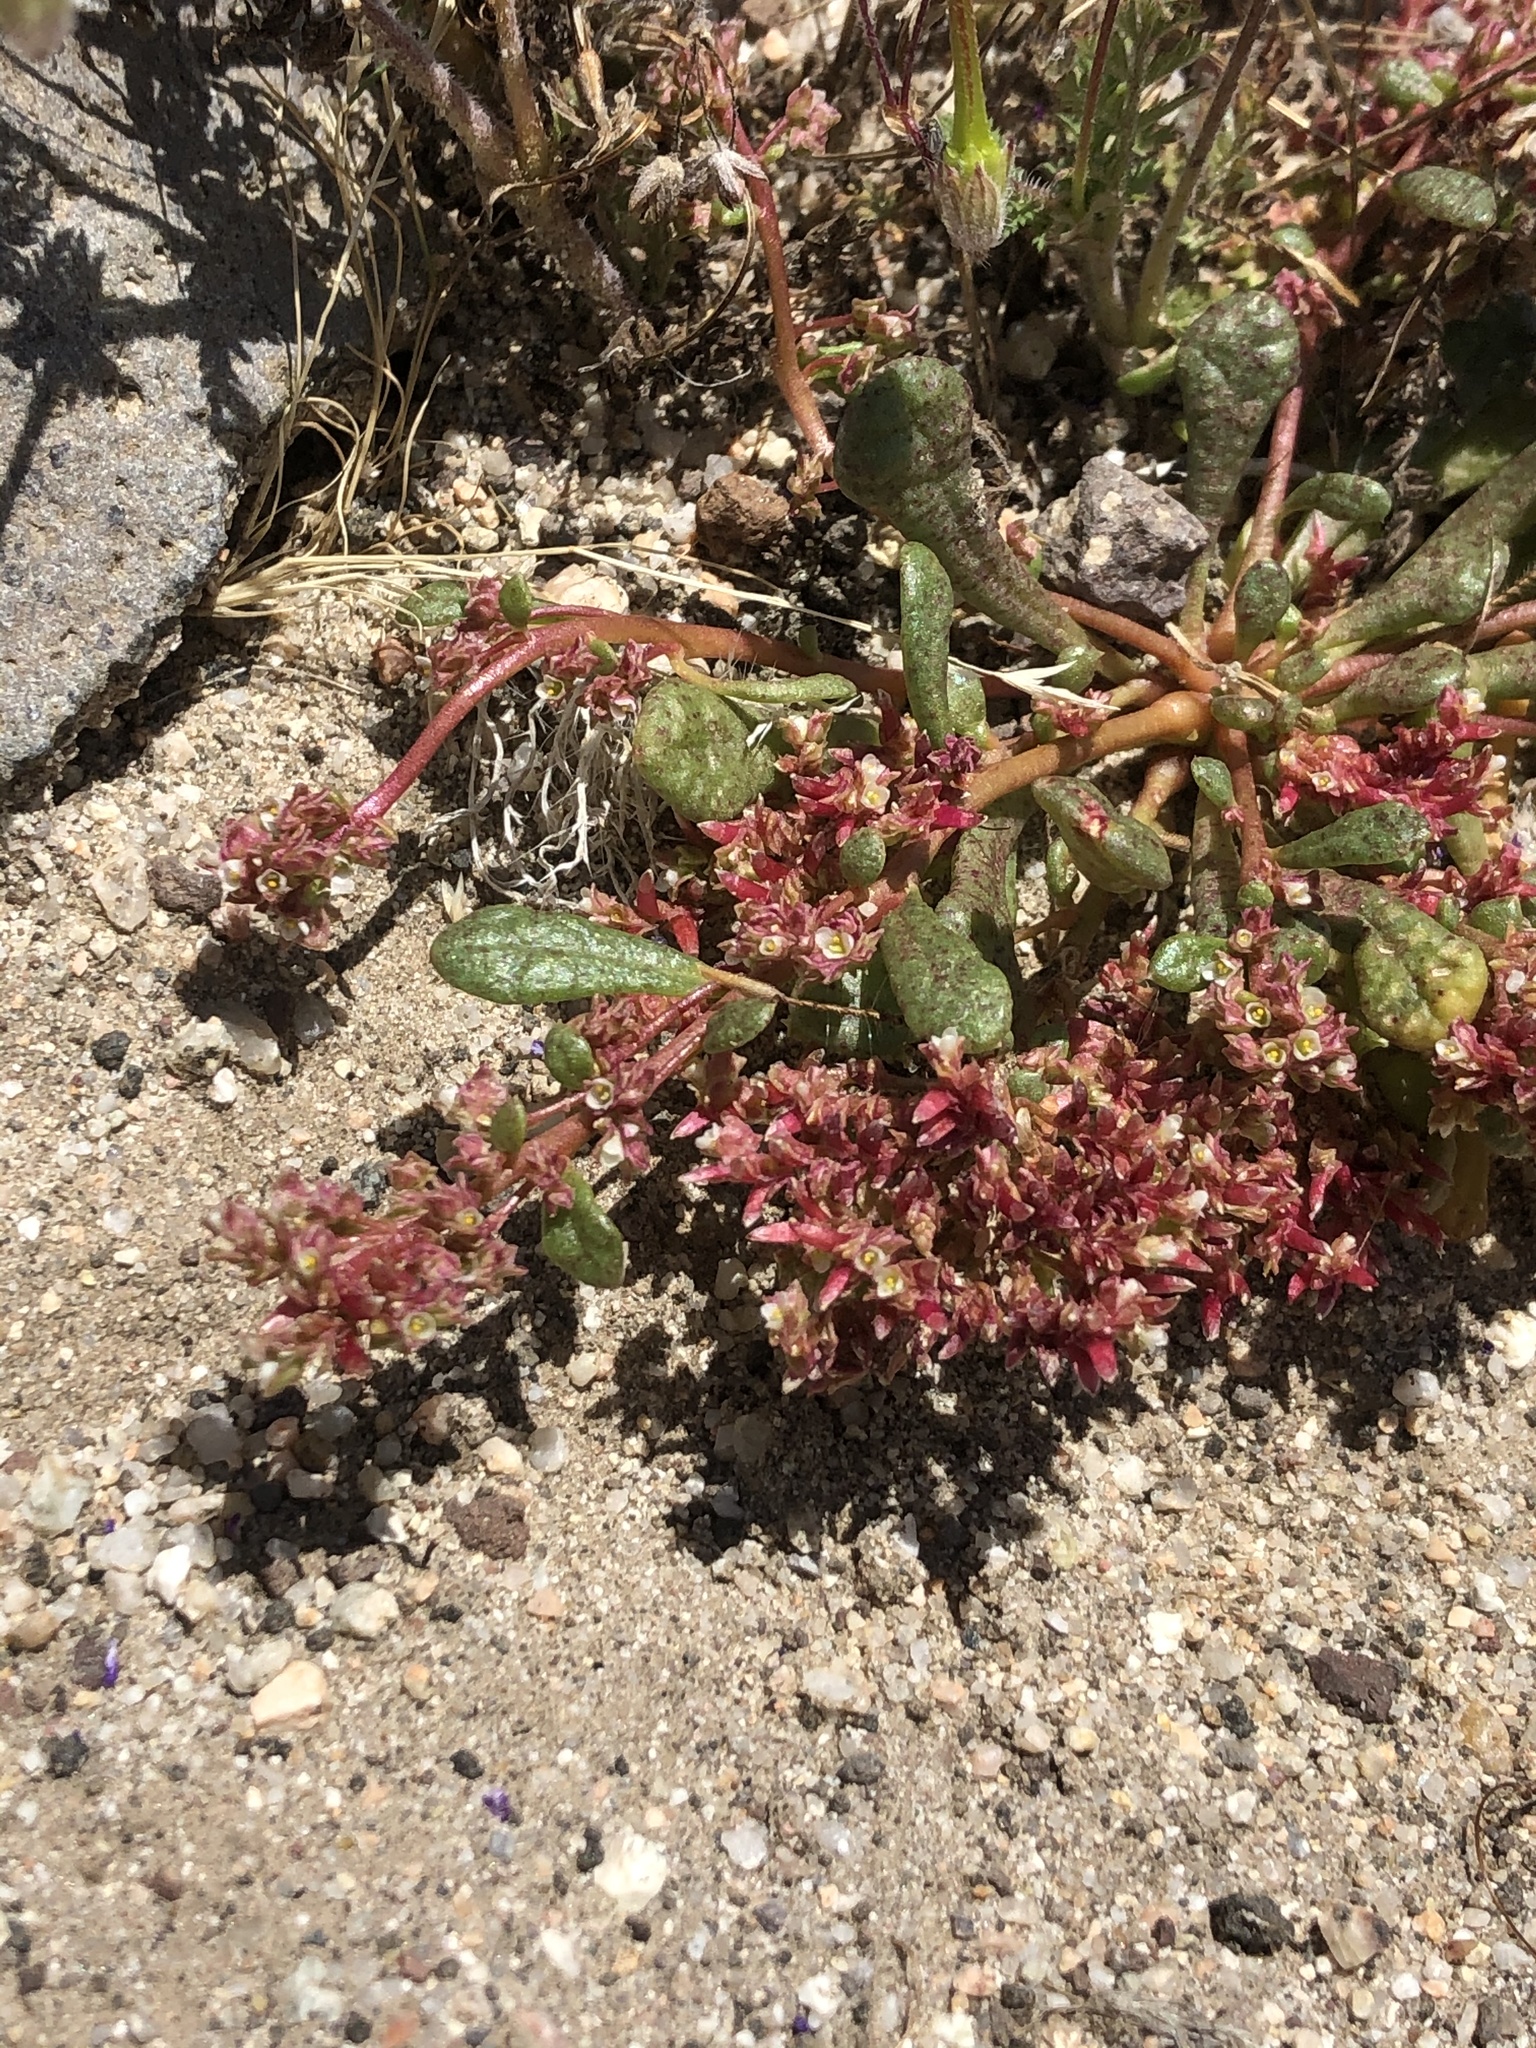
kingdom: Plantae
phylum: Tracheophyta
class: Magnoliopsida
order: Caryophyllales
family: Montiaceae
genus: Calyptridium
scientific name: Calyptridium monandrum
